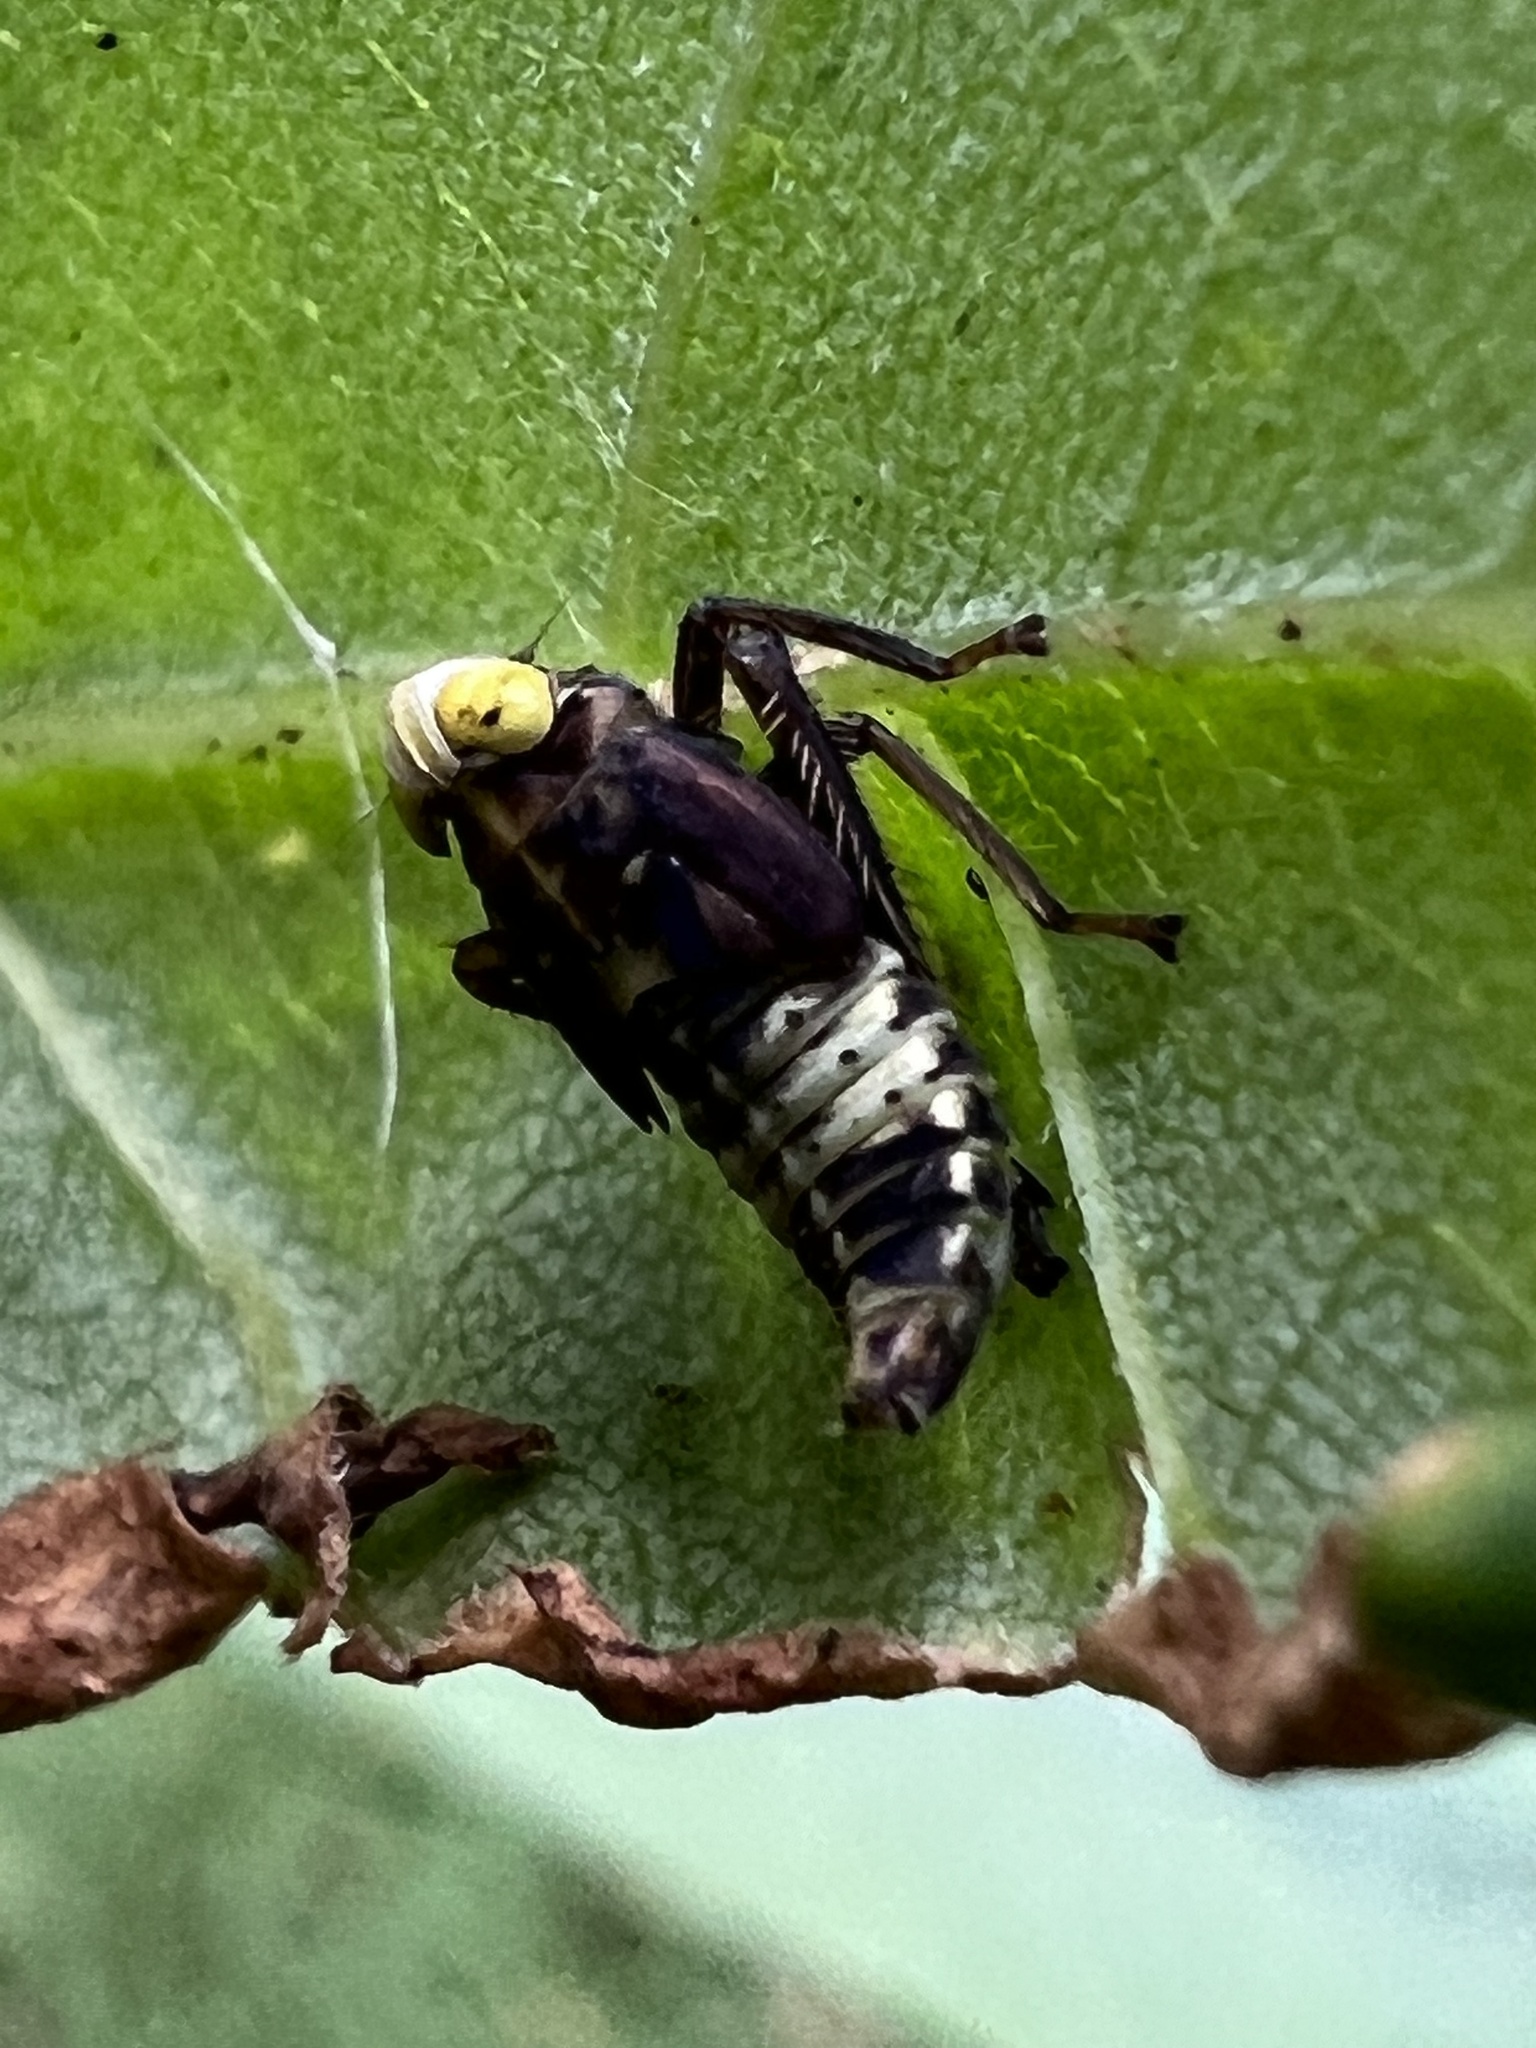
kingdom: Animalia
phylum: Arthropoda
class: Insecta
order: Hemiptera
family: Cicadellidae
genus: Jikradia
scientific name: Jikradia olitoria
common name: Coppery leafhopper
